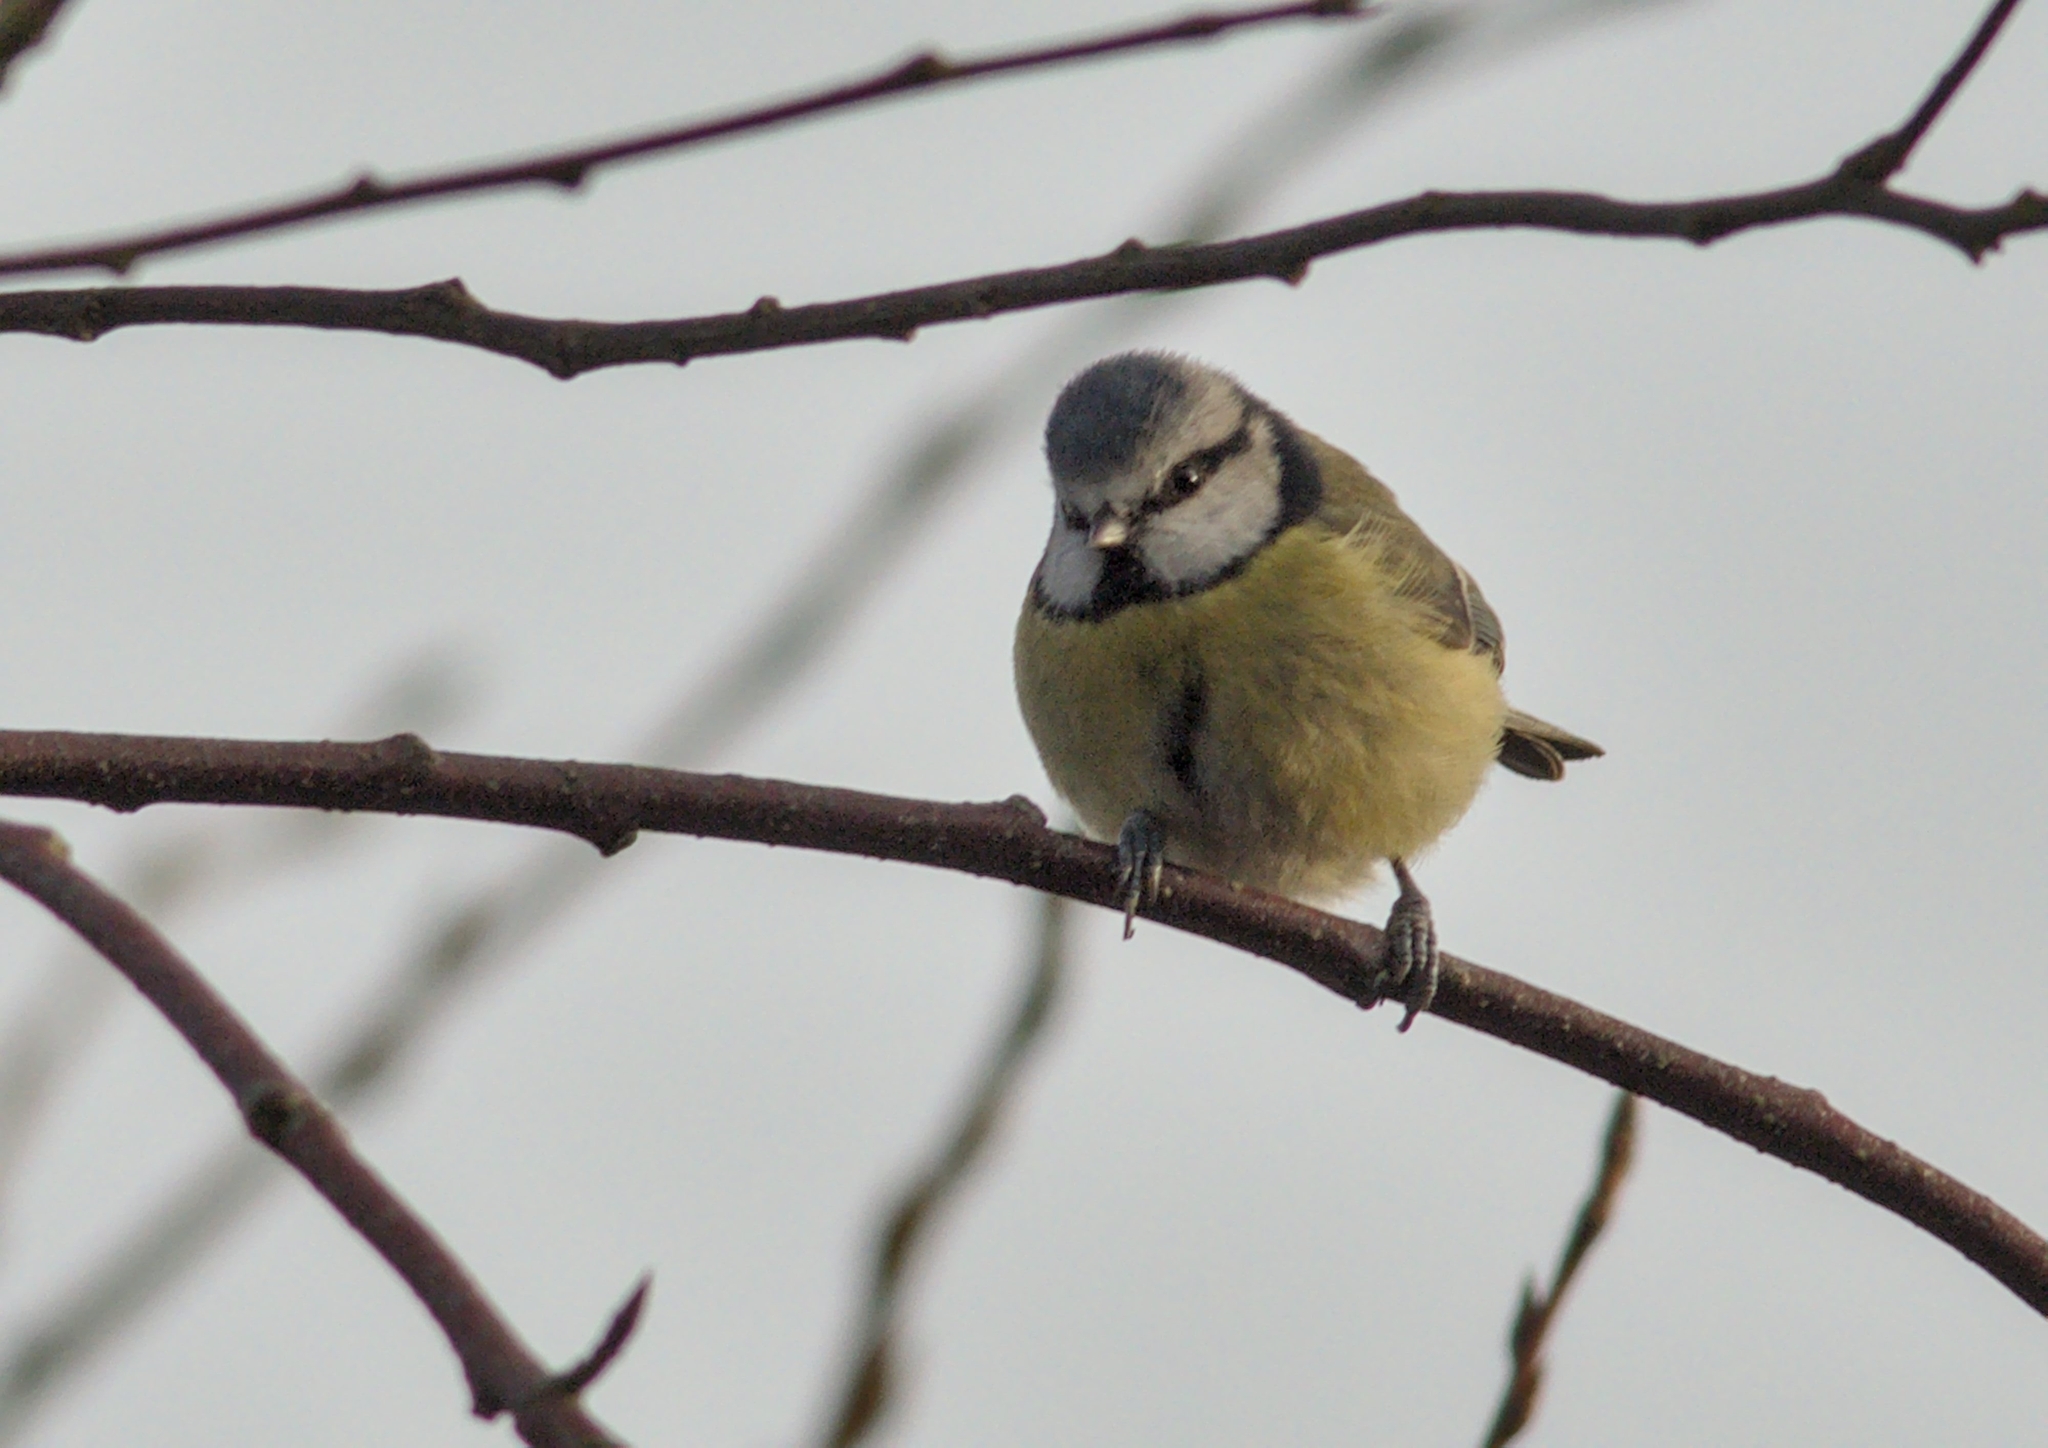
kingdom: Animalia
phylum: Chordata
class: Aves
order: Passeriformes
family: Paridae
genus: Cyanistes
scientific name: Cyanistes caeruleus
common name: Eurasian blue tit
